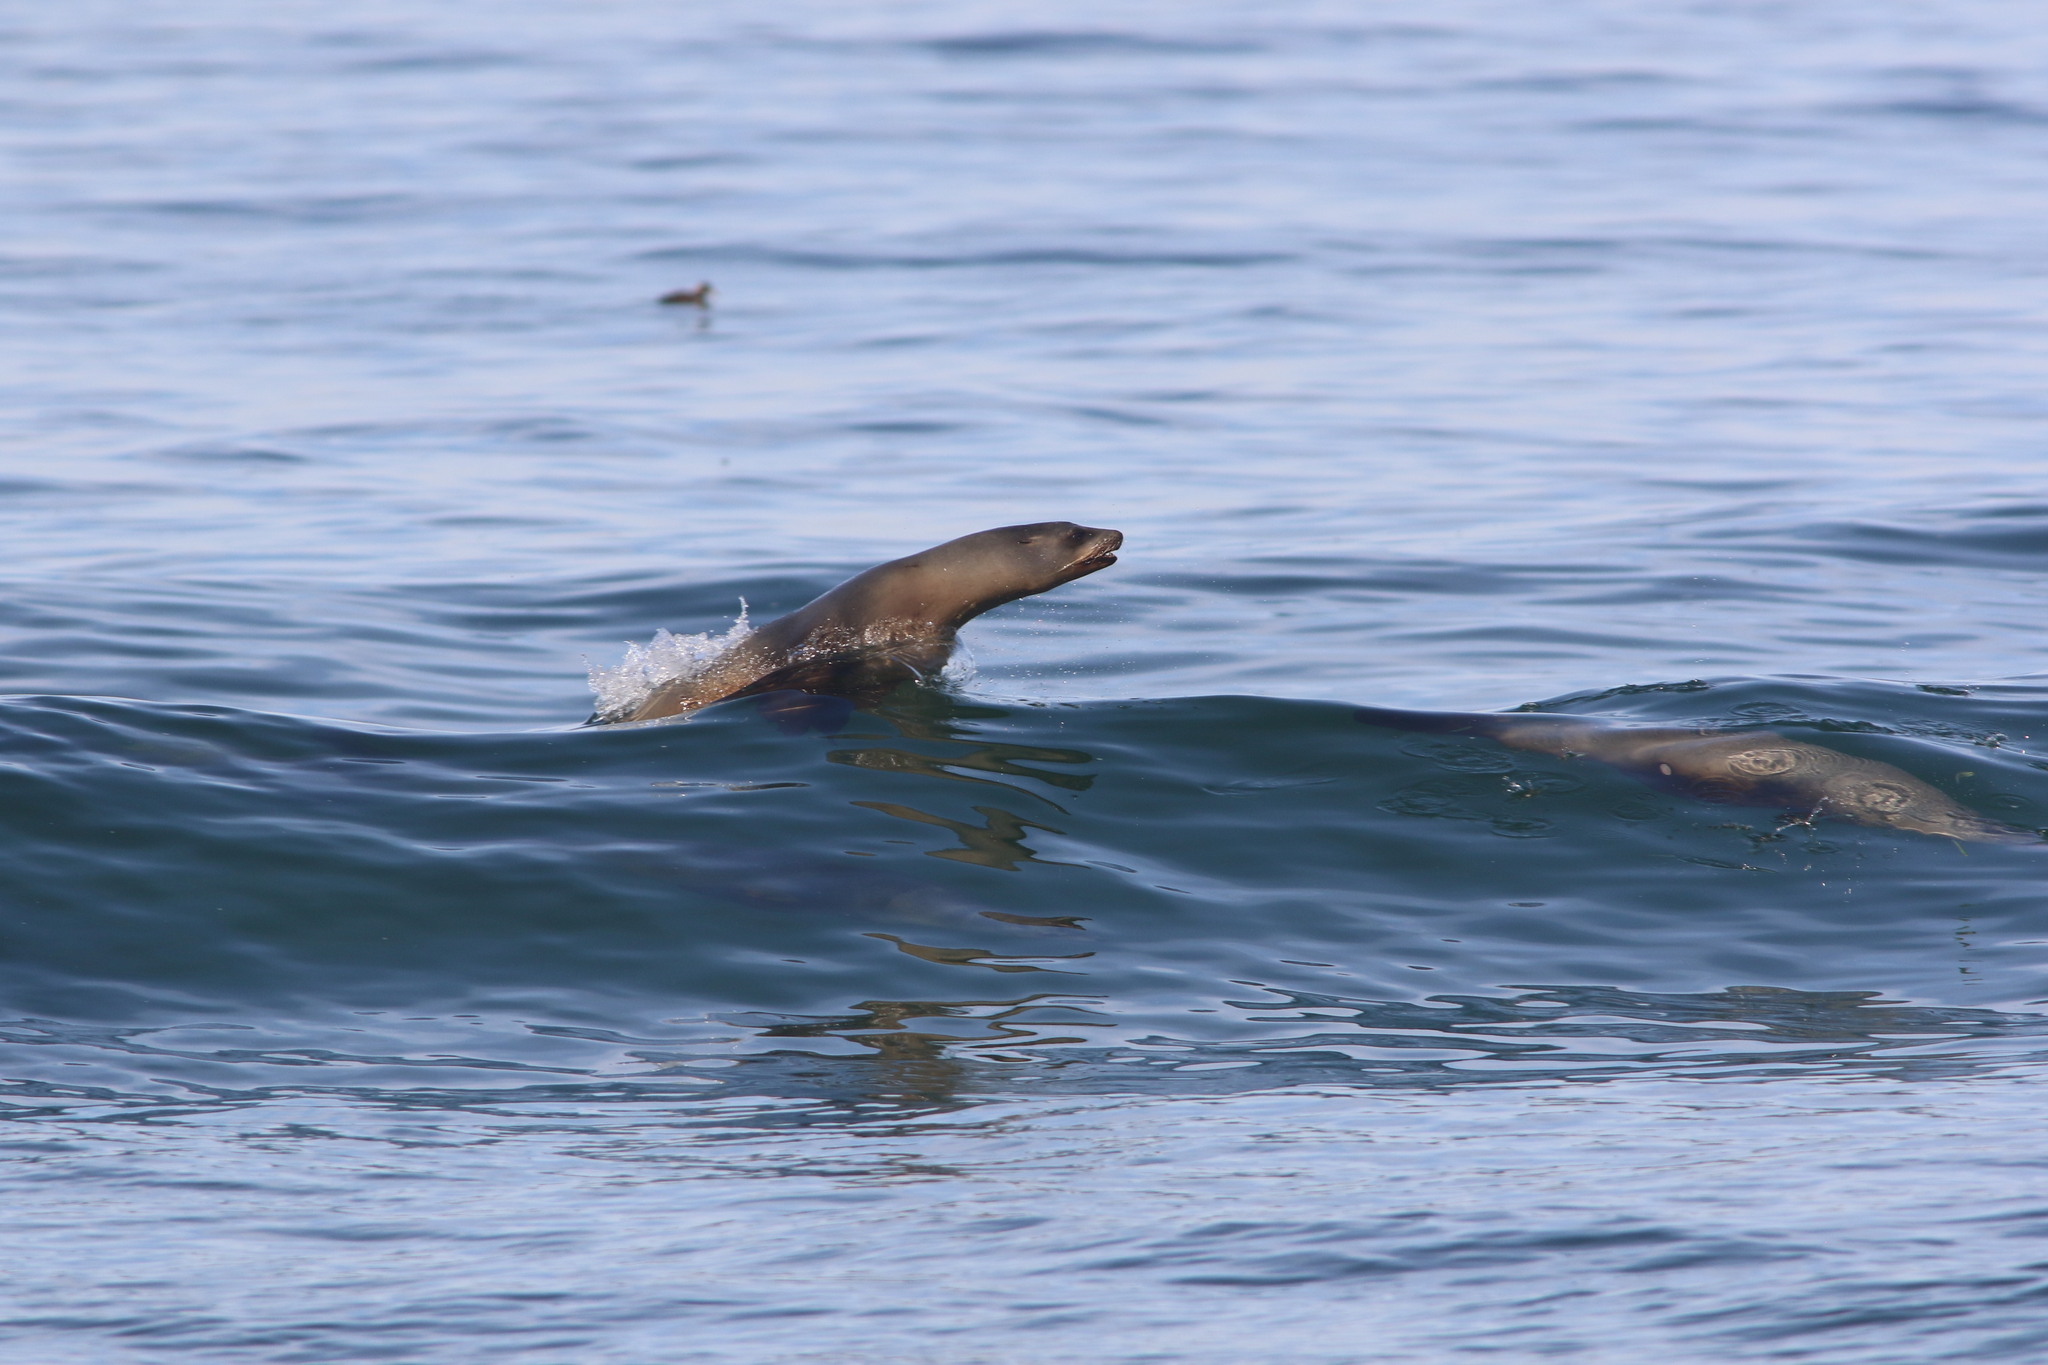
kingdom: Animalia
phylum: Chordata
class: Elasmobranchii
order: Squaliformes
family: Dalatiidae
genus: Isistius
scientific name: Isistius brasiliensis
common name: Cookiecutter shark
